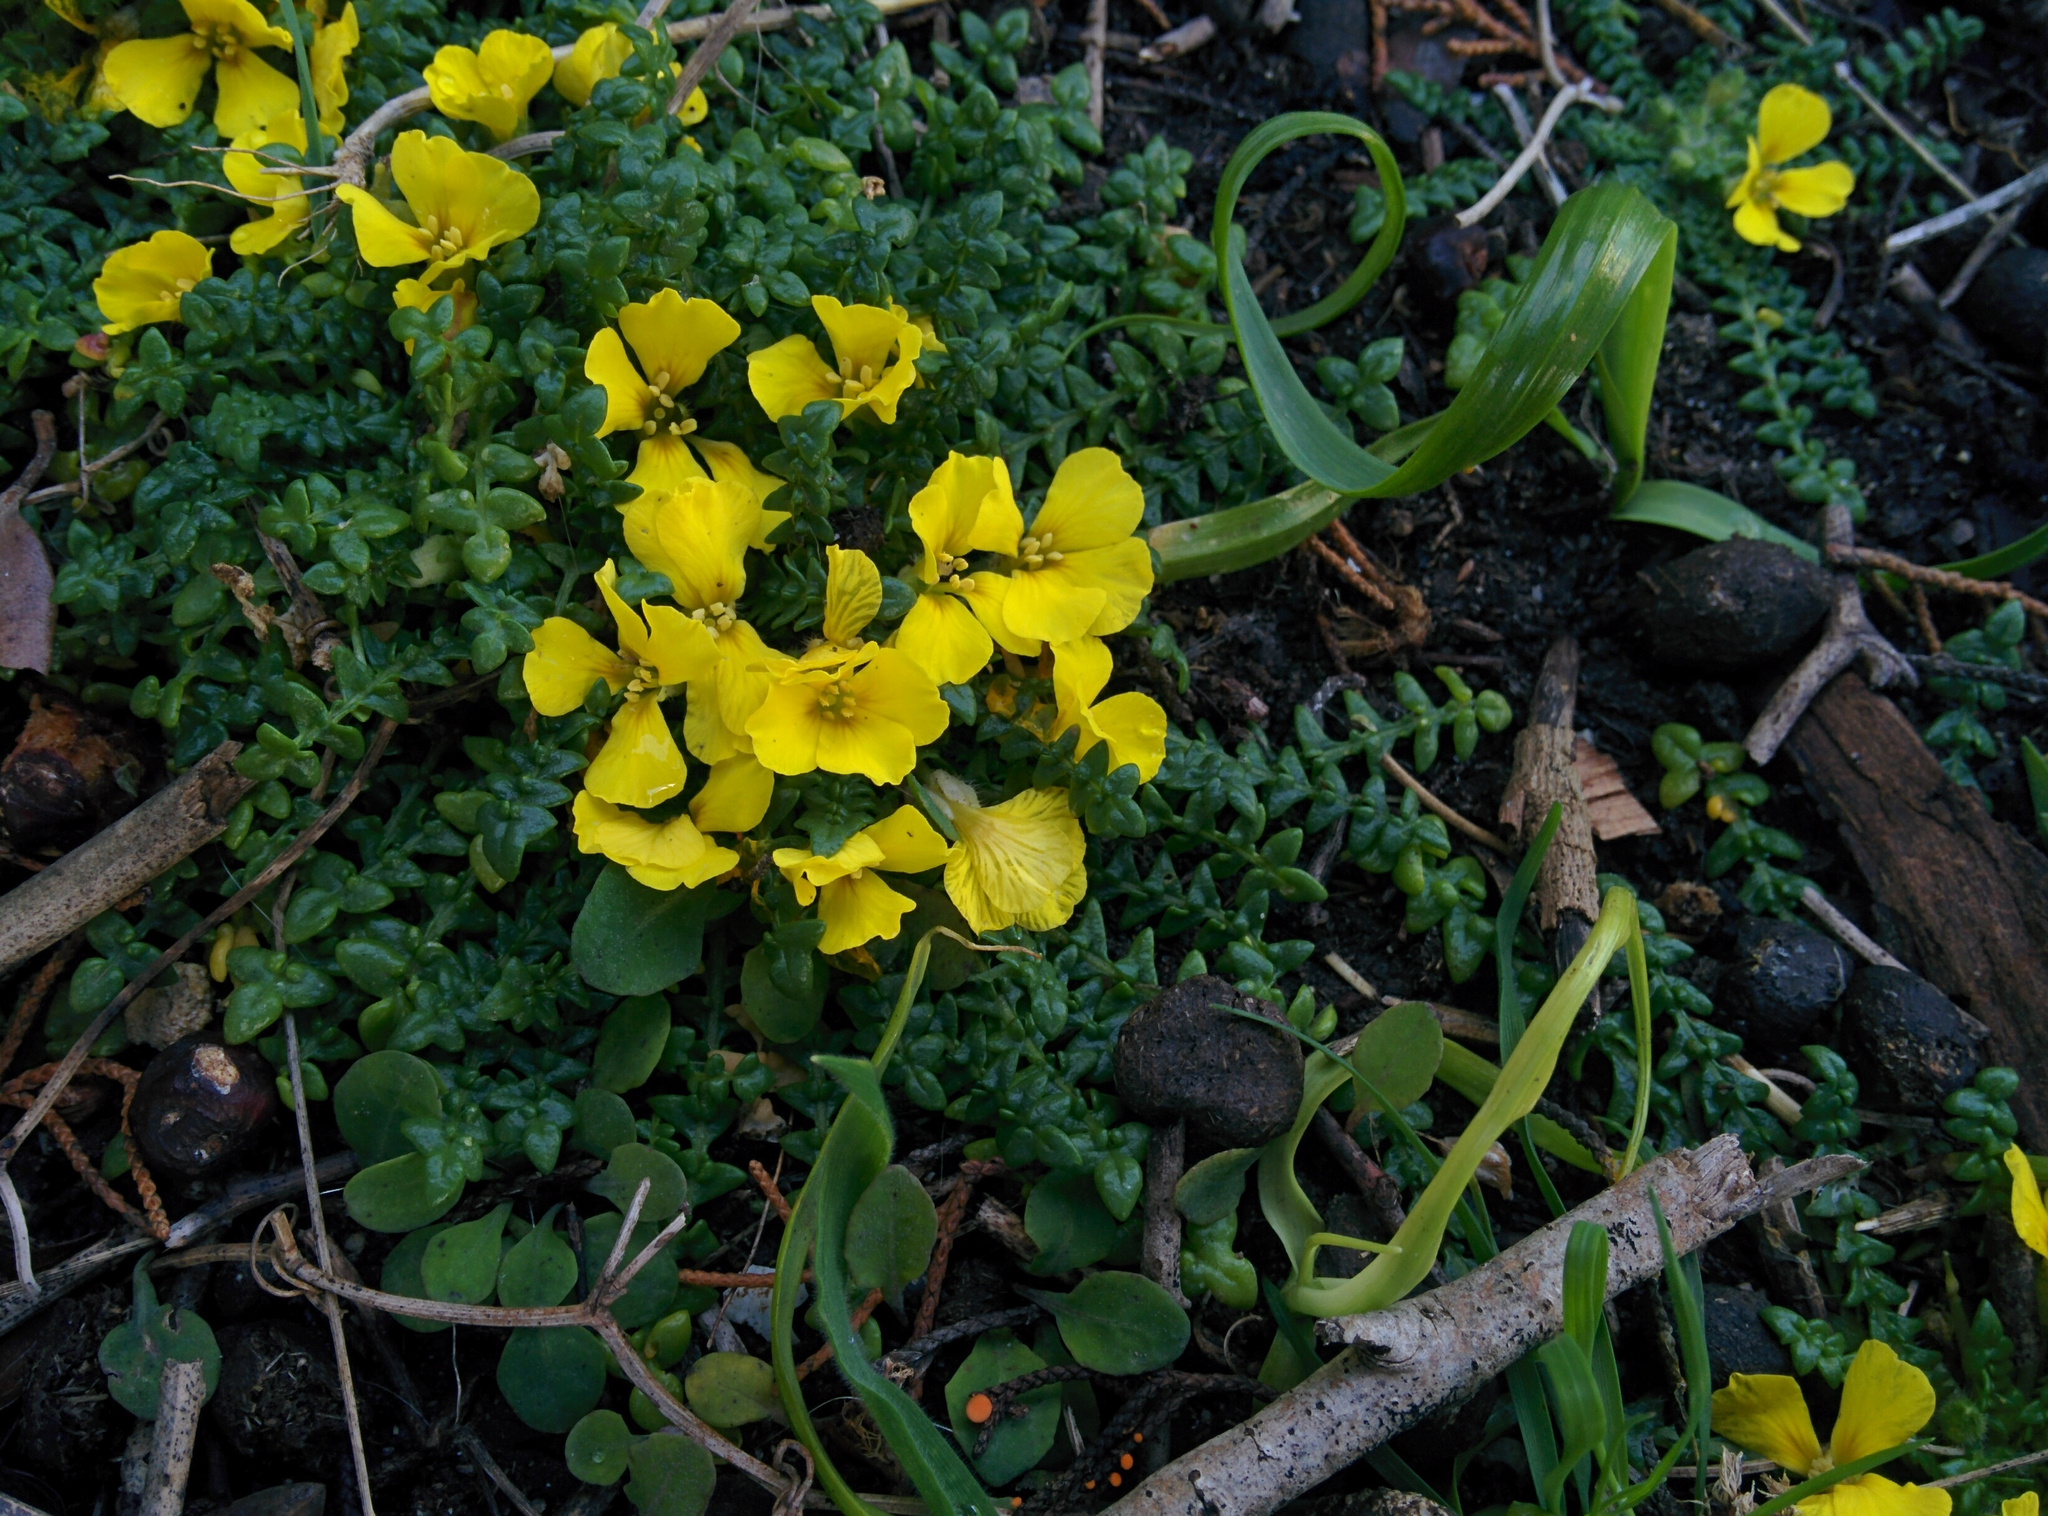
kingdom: Plantae
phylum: Tracheophyta
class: Magnoliopsida
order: Brassicales
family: Brassicaceae
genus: Morisia
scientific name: Morisia monanthos
